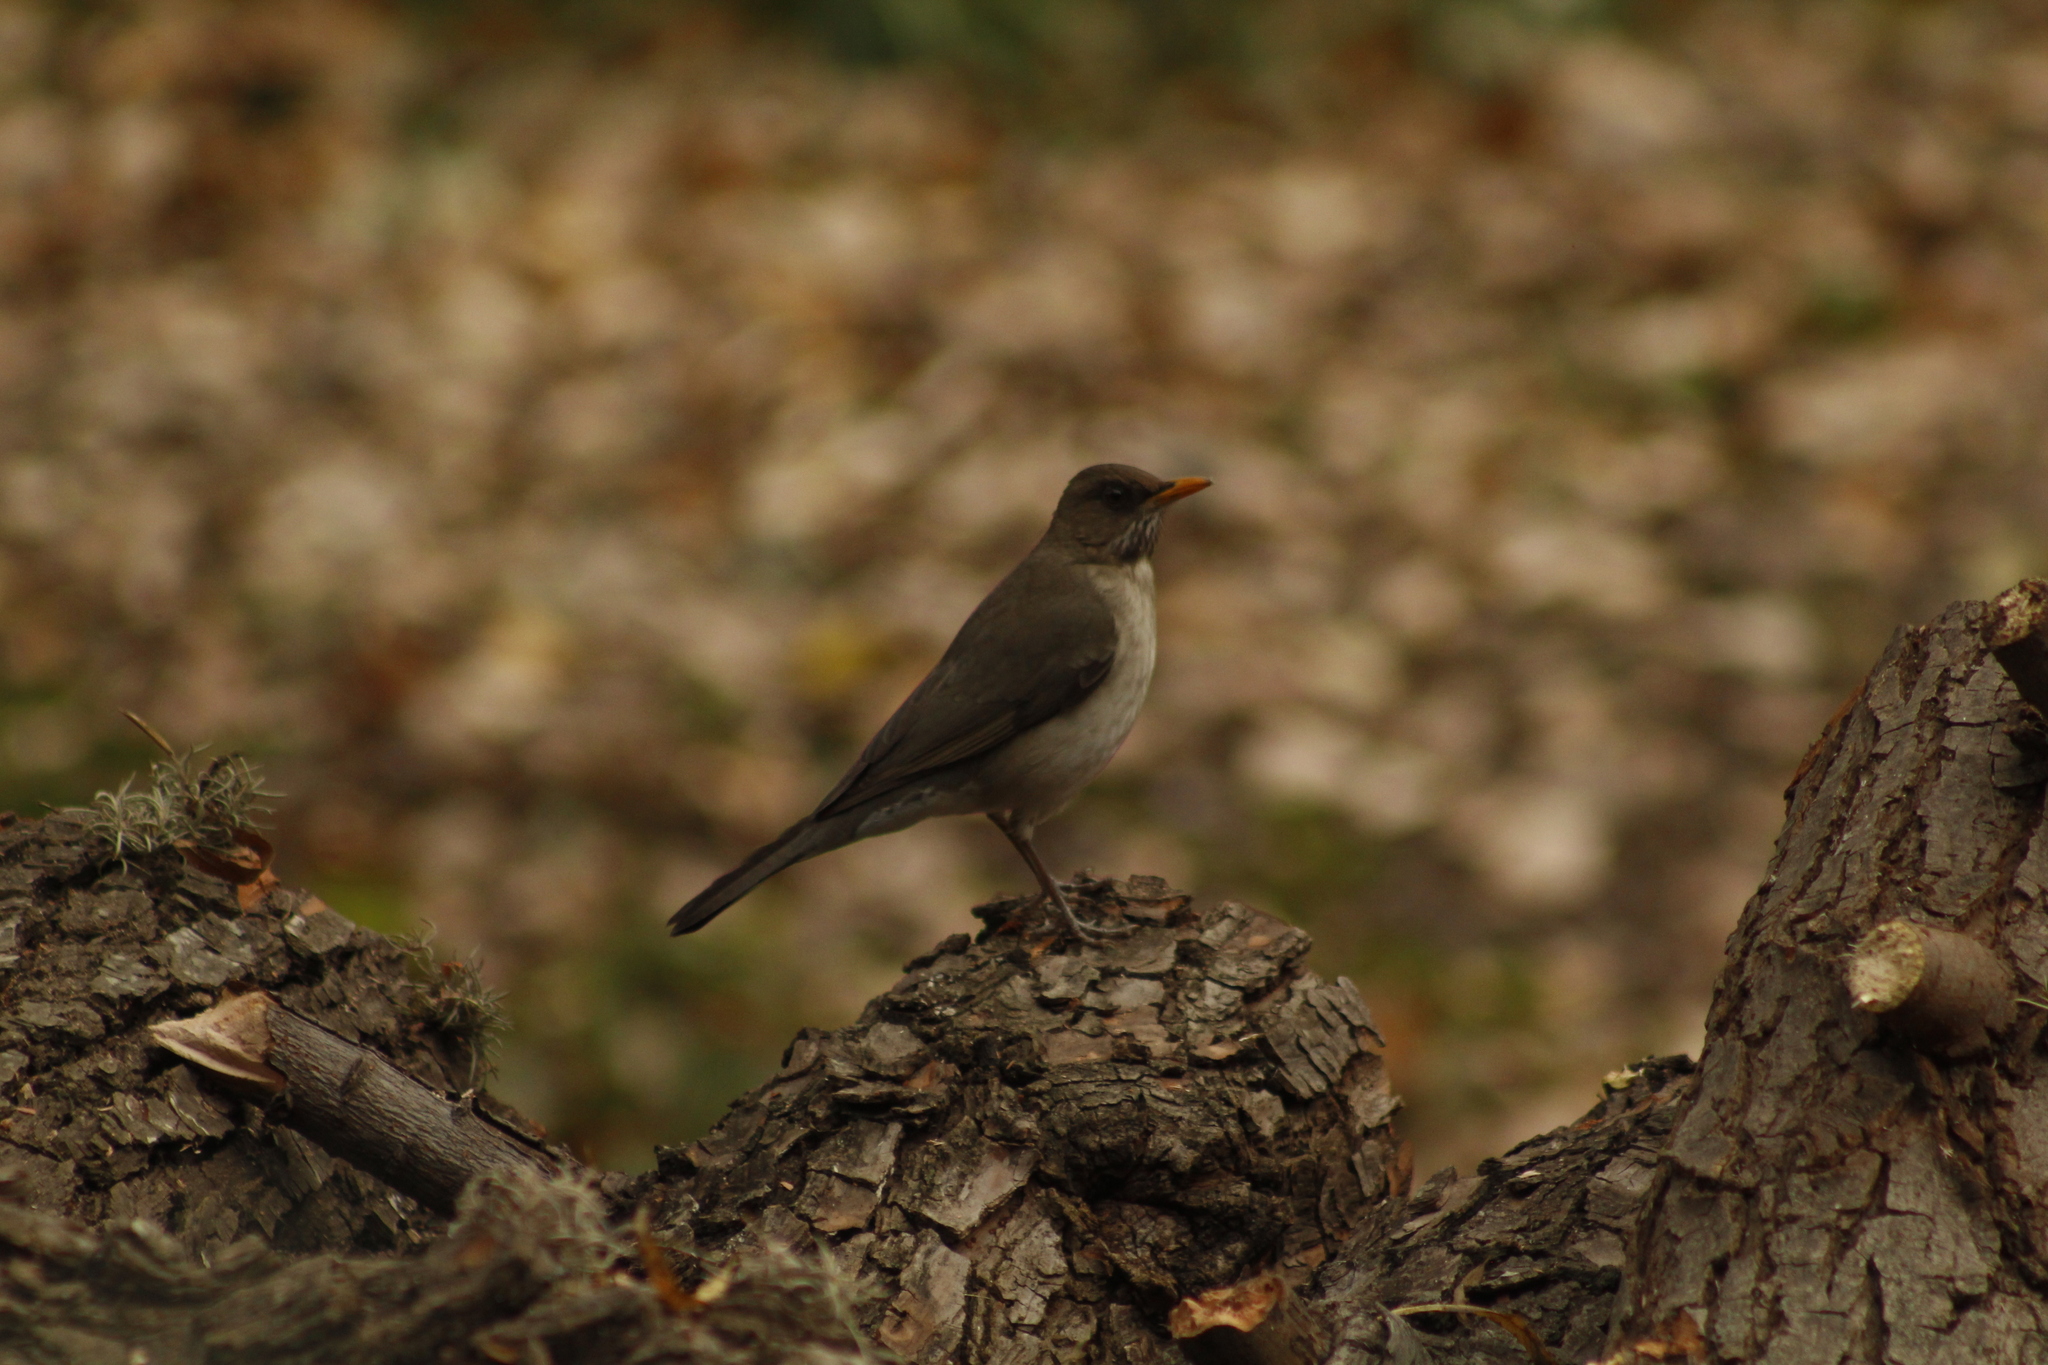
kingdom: Animalia
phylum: Chordata
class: Aves
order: Passeriformes
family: Turdidae
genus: Turdus
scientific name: Turdus amaurochalinus
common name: Creamy-bellied thrush
